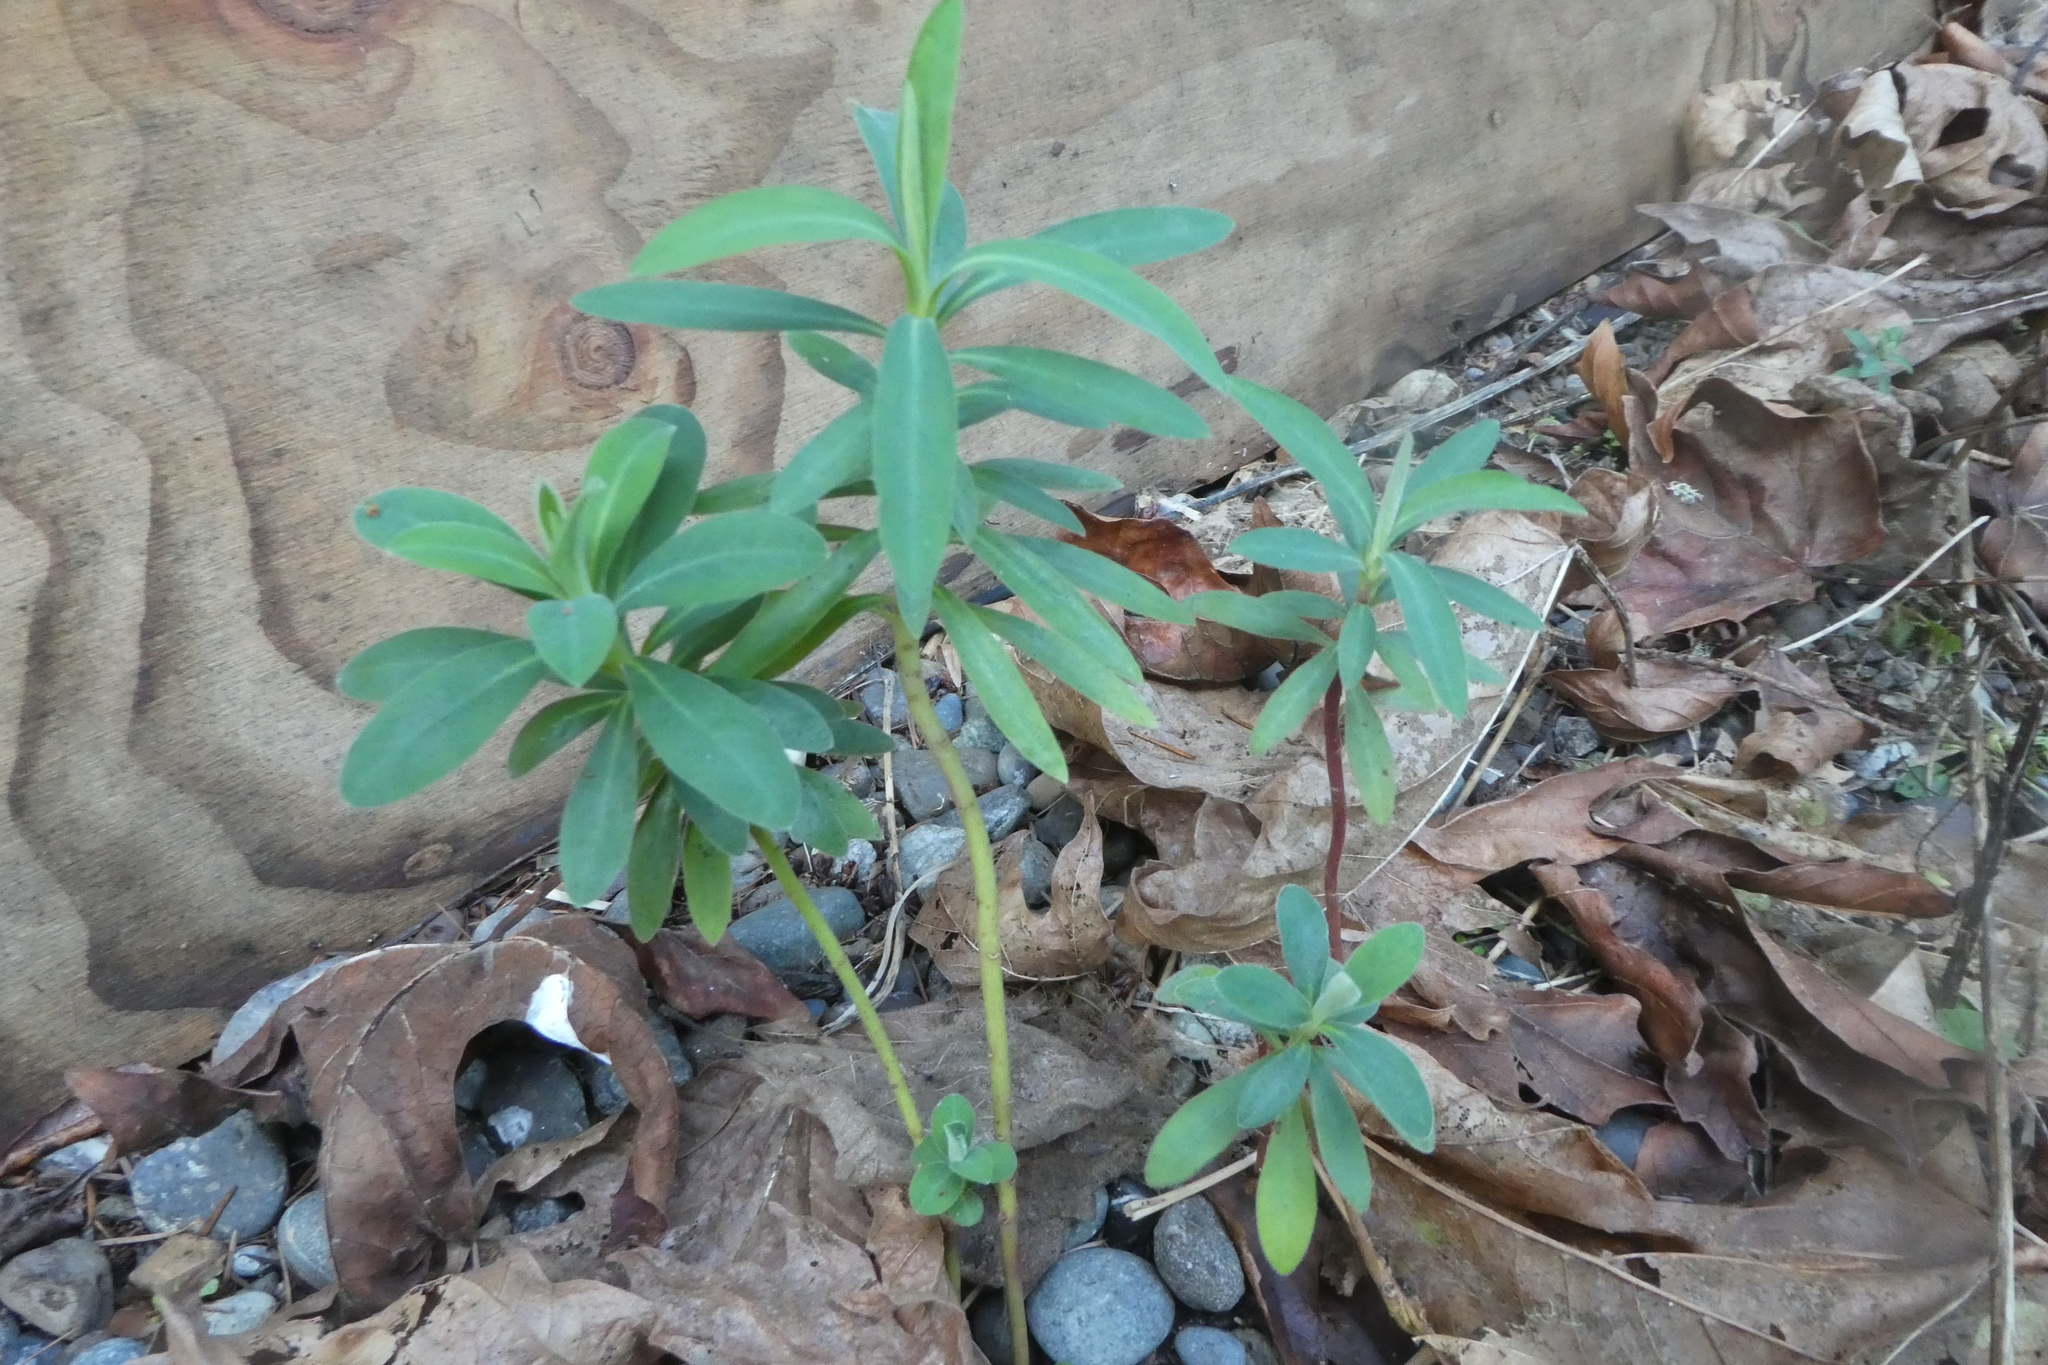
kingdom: Plantae
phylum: Tracheophyta
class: Magnoliopsida
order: Malvales
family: Thymelaeaceae
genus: Daphne
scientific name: Daphne laureola
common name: Spurge-laurel
